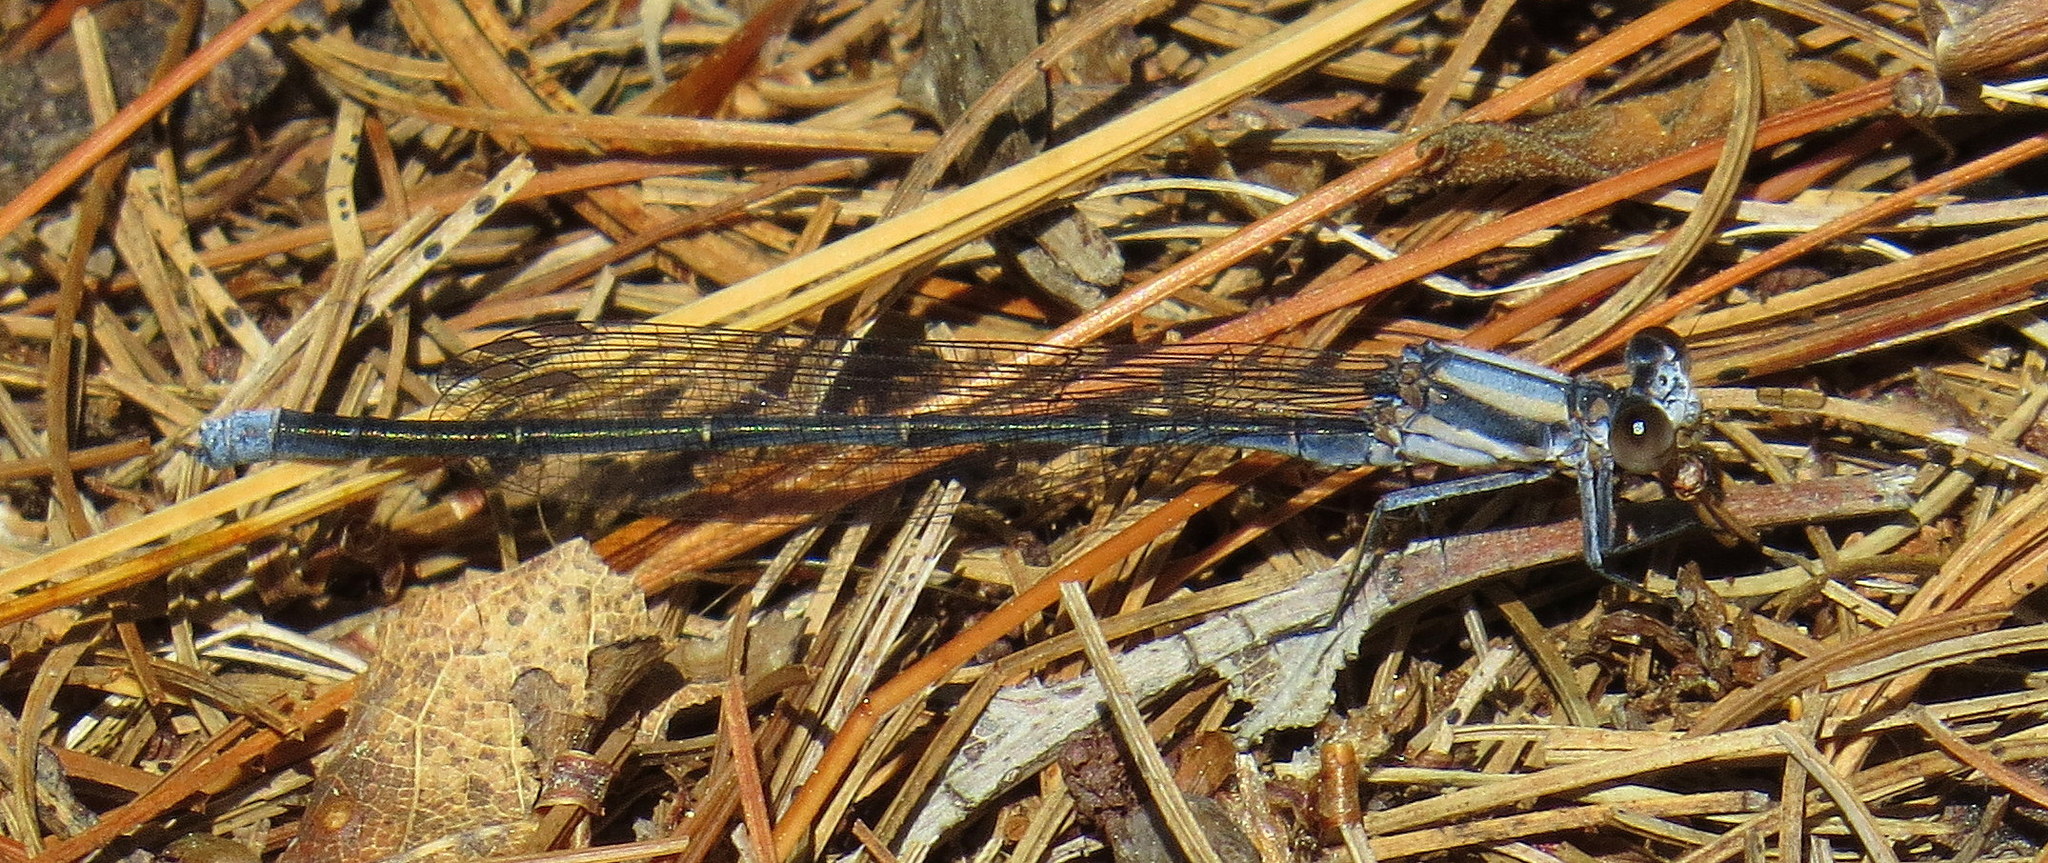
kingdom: Animalia
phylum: Arthropoda
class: Insecta
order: Odonata
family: Coenagrionidae
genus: Argia
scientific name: Argia moesta
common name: Powdered dancer
